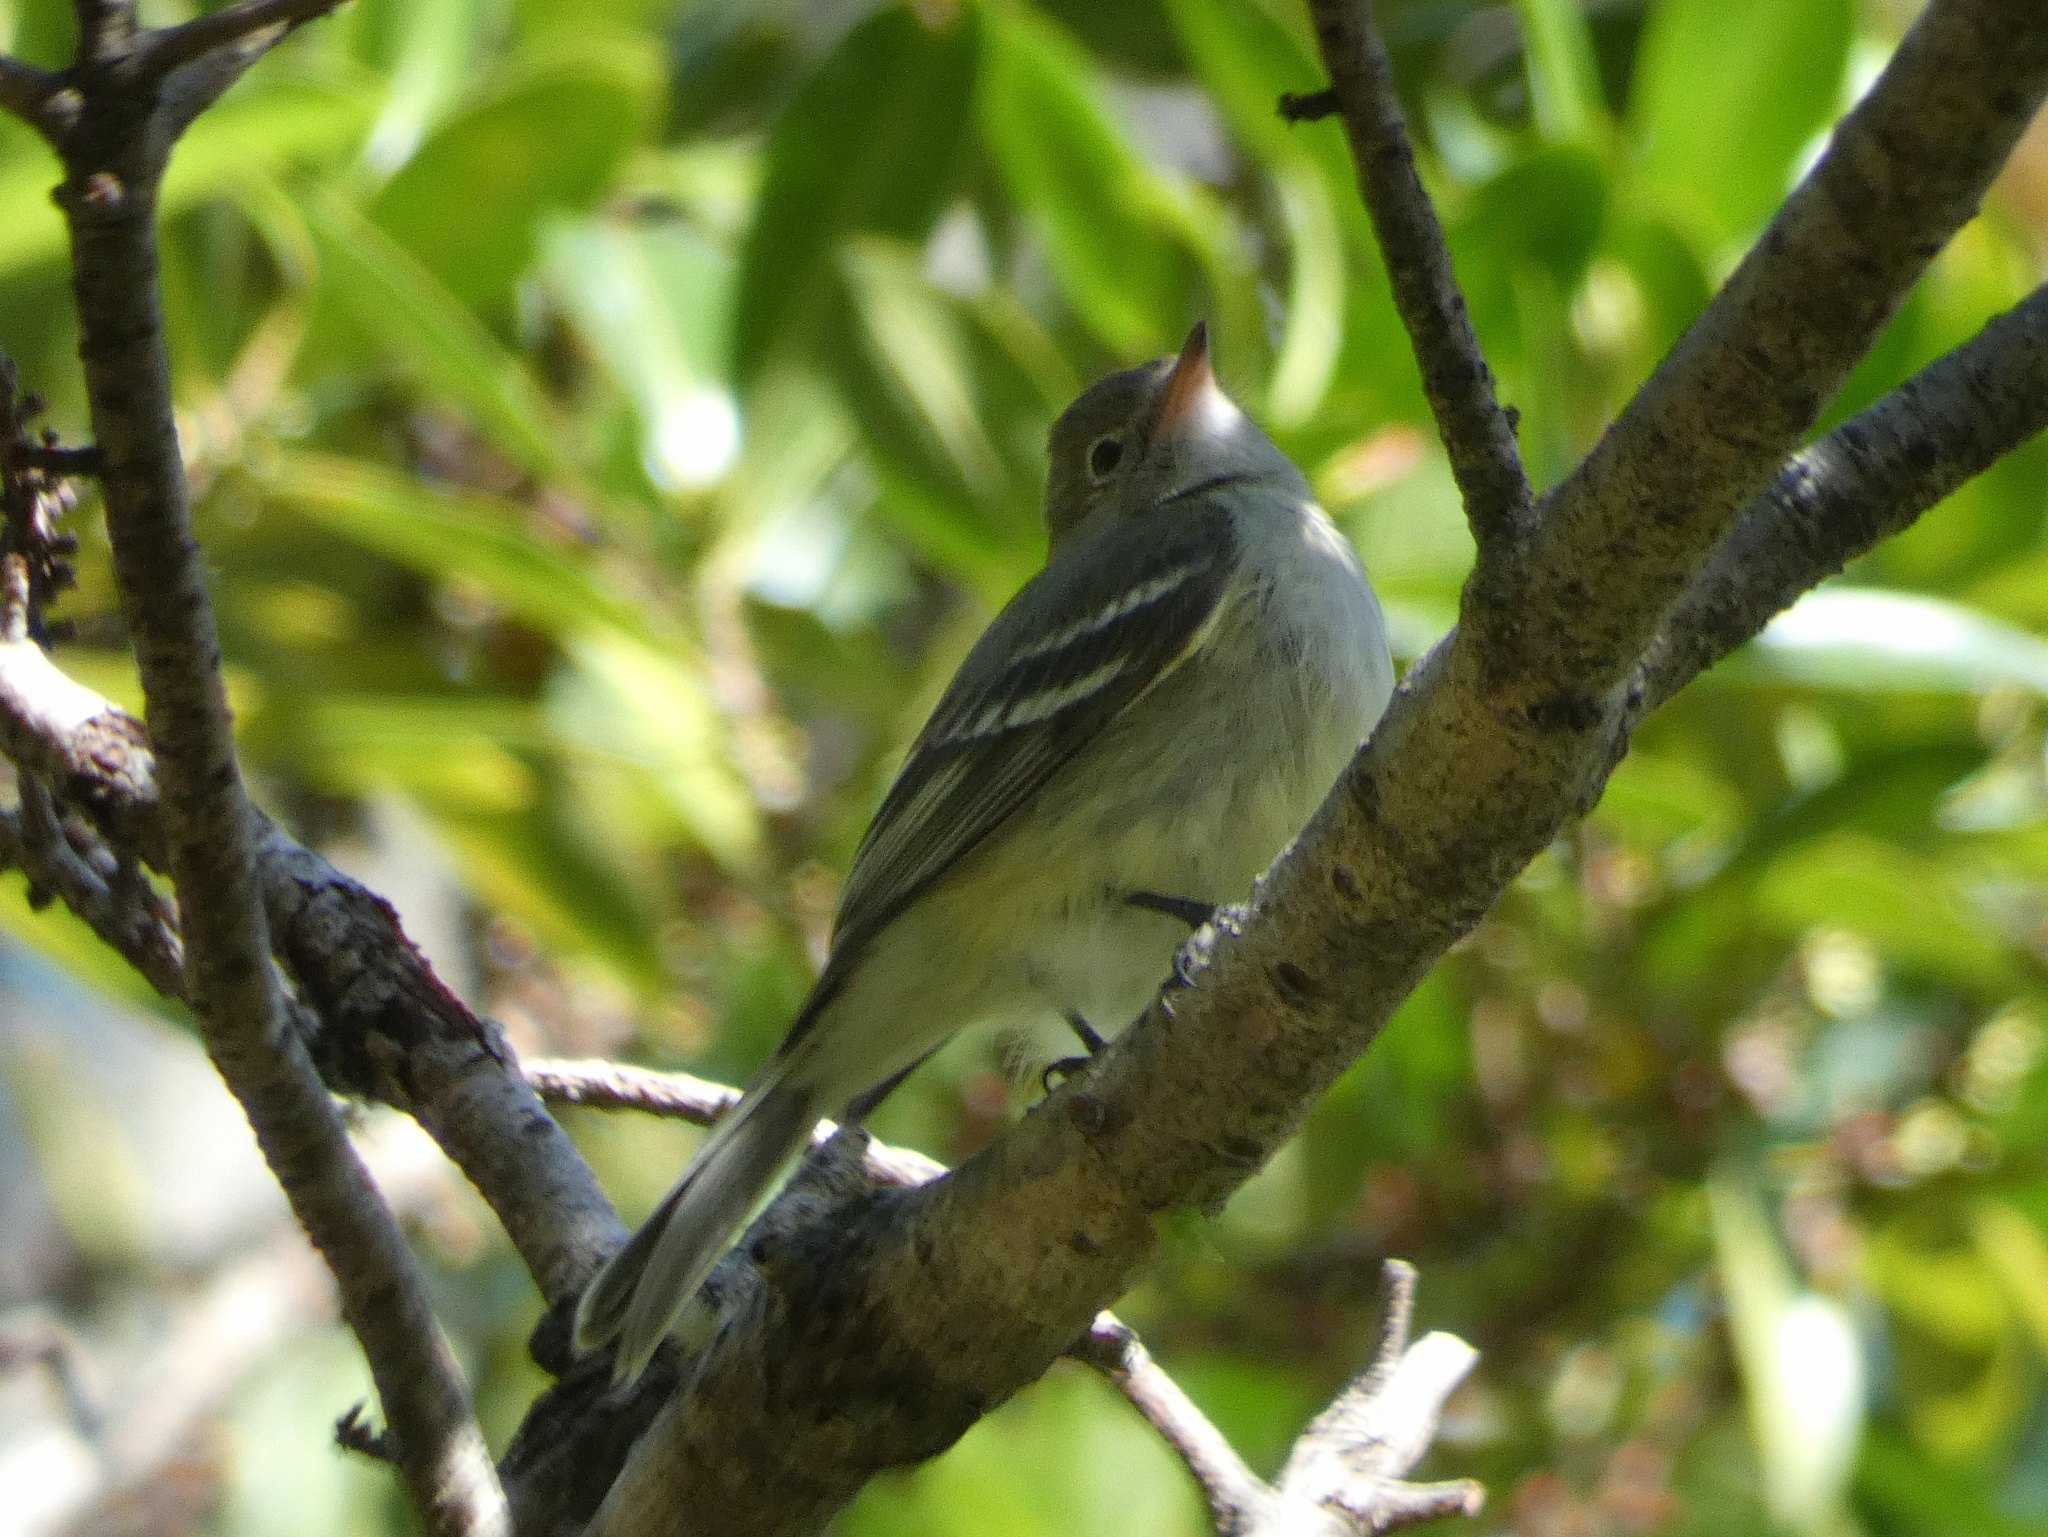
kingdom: Animalia
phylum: Chordata
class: Aves
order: Passeriformes
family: Tyrannidae
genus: Elaenia
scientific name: Elaenia frantzii
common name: Mountain elaenia
